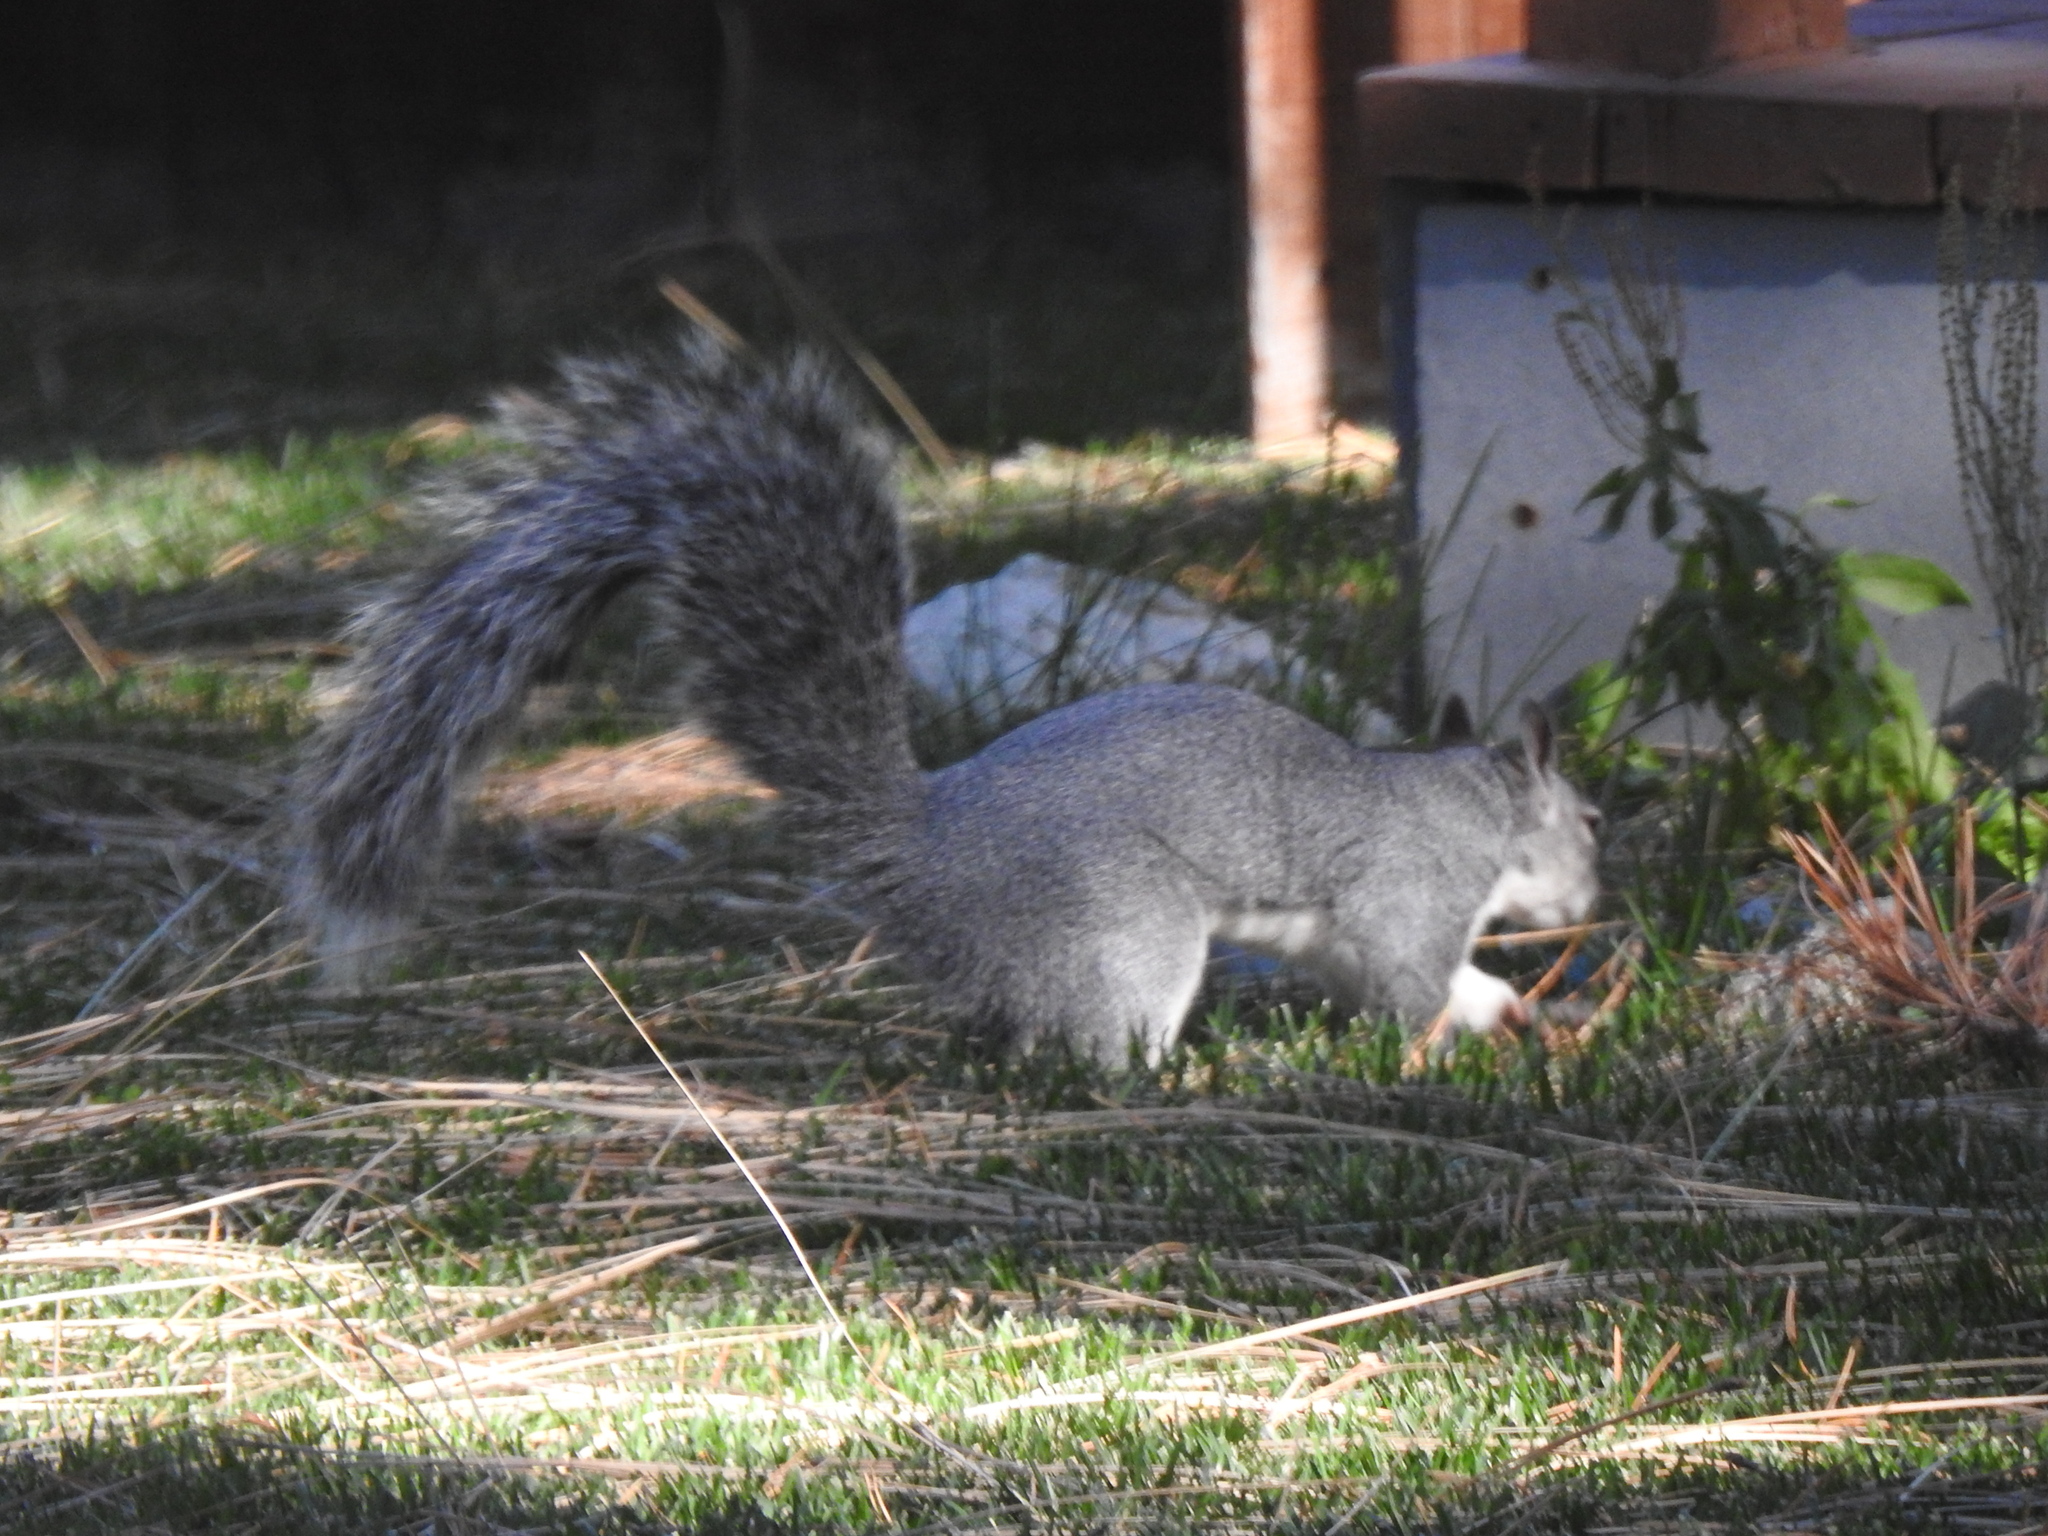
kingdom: Animalia
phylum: Chordata
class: Mammalia
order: Rodentia
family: Sciuridae
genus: Sciurus
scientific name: Sciurus griseus
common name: Western gray squirrel
